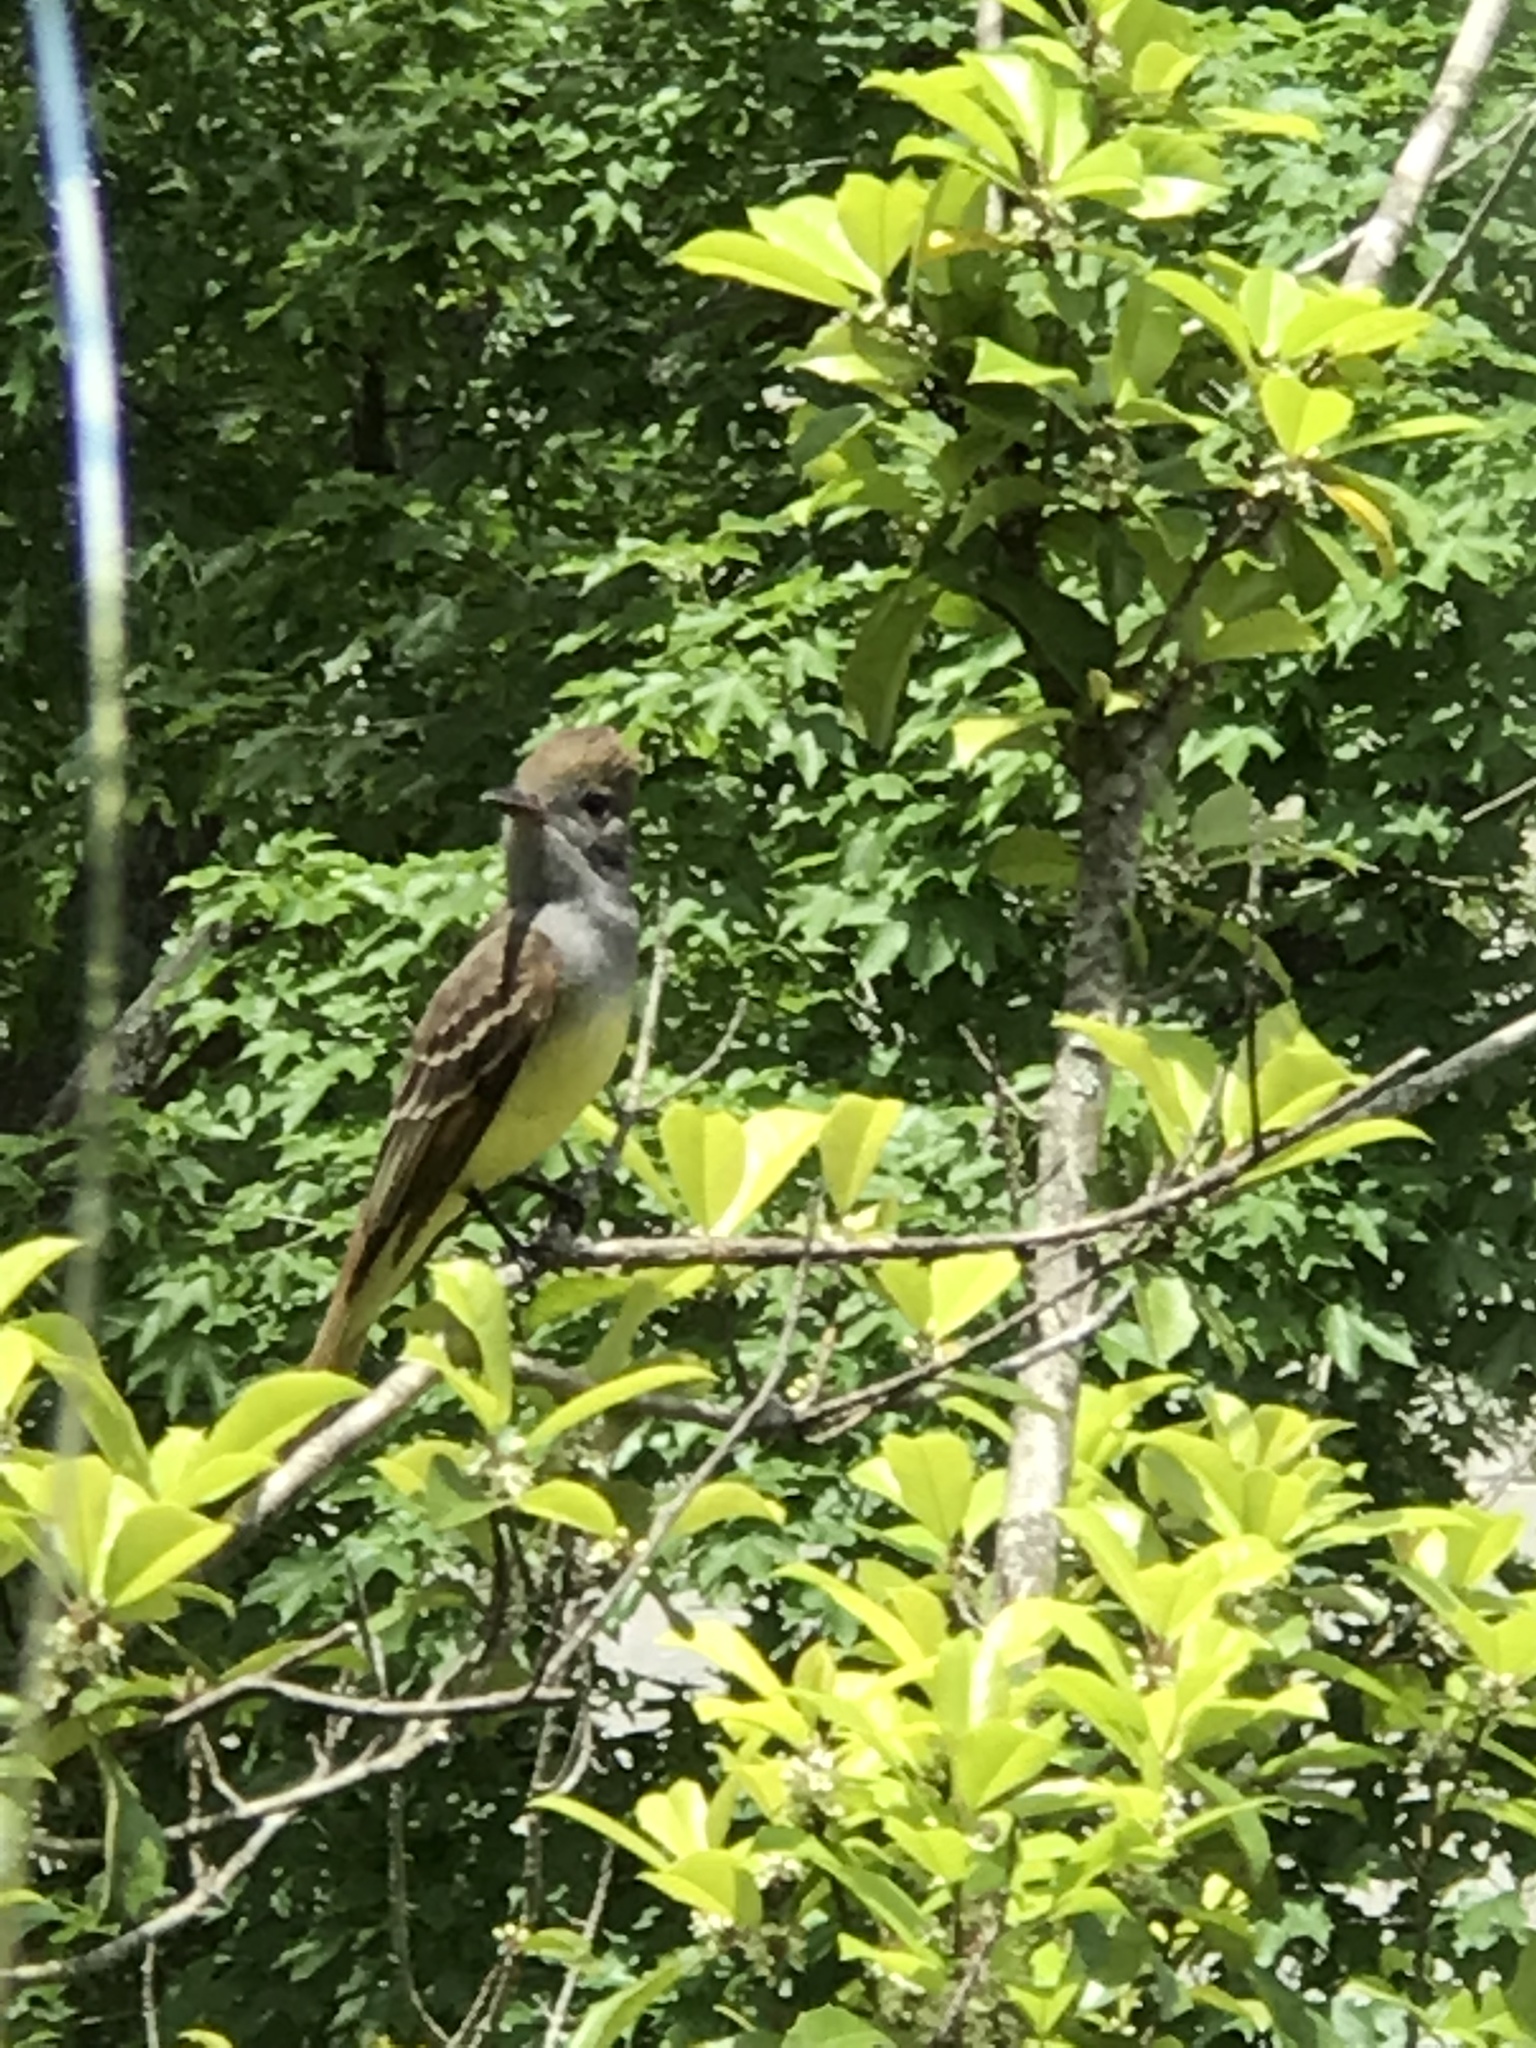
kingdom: Animalia
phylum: Chordata
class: Aves
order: Passeriformes
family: Tyrannidae
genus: Myiarchus
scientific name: Myiarchus crinitus
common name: Great crested flycatcher
